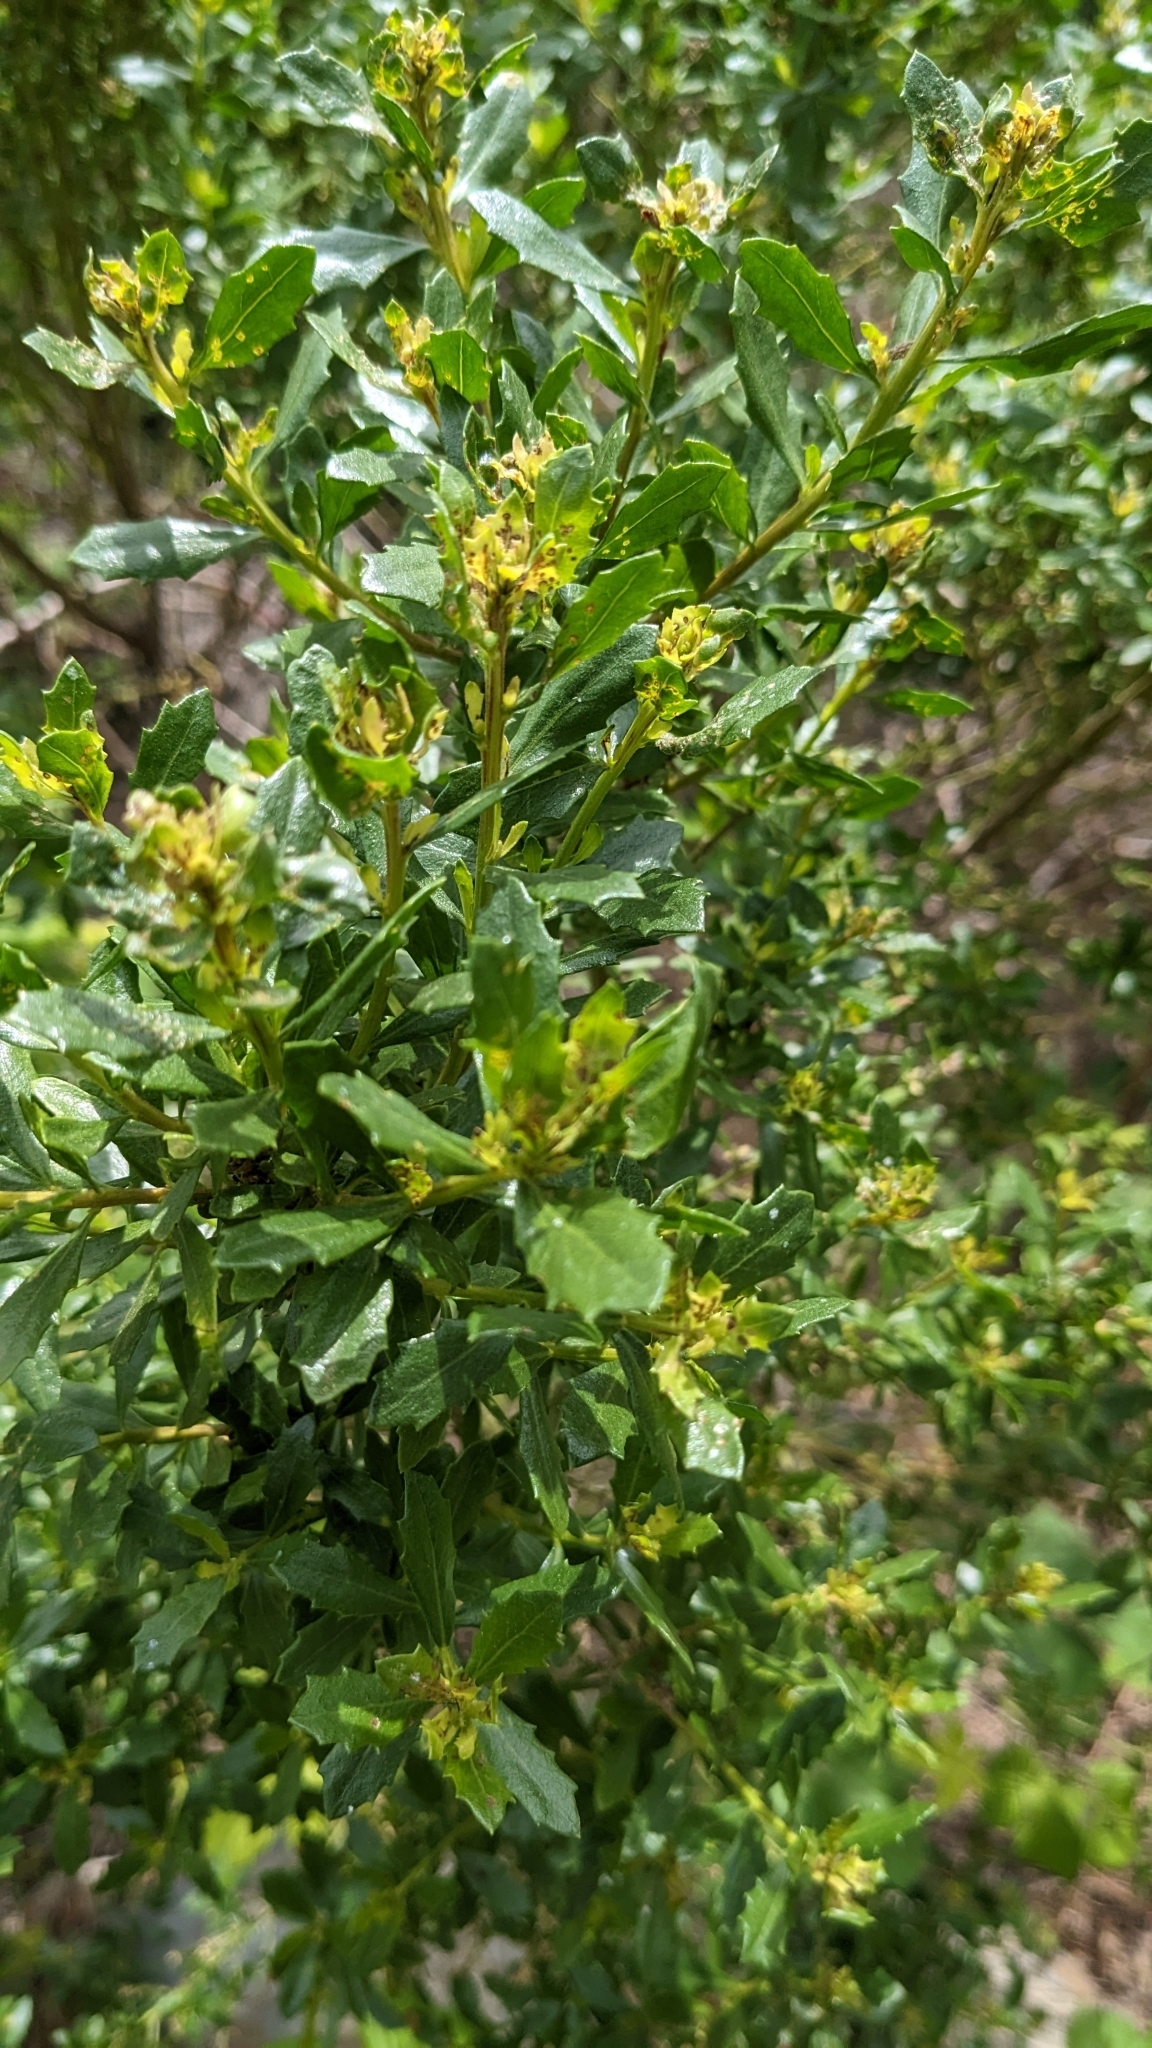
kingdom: Plantae
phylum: Tracheophyta
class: Magnoliopsida
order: Asterales
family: Asteraceae
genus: Baccharis
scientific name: Baccharis pilularis
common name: Coyotebrush
